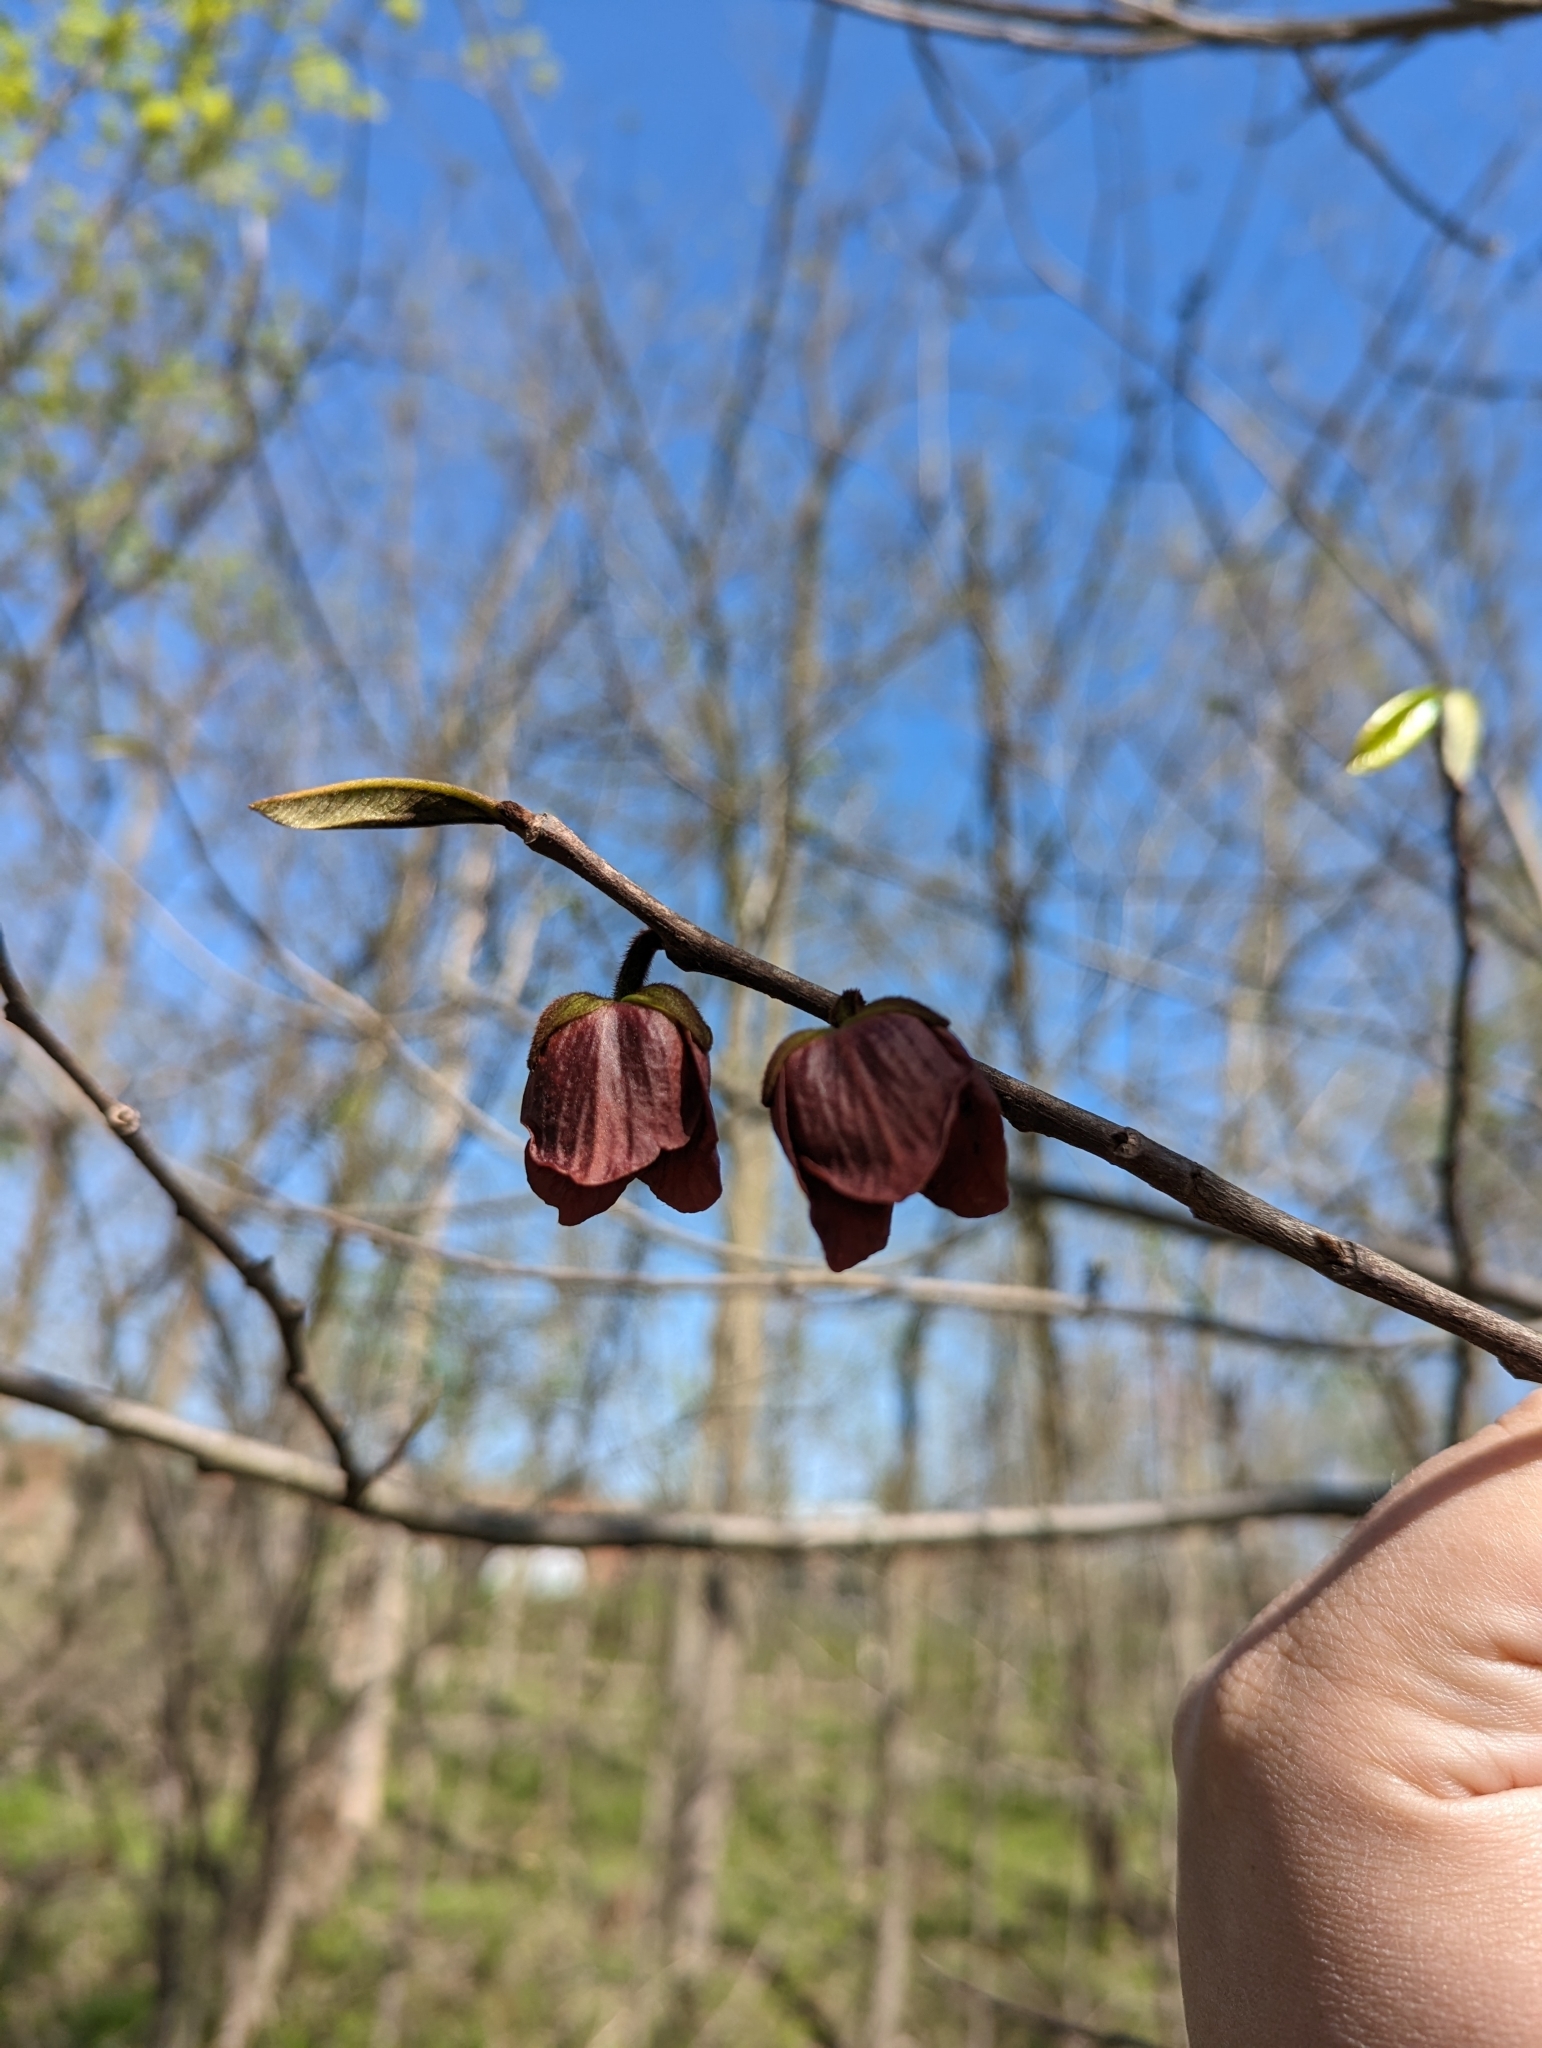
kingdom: Plantae
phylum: Tracheophyta
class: Magnoliopsida
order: Magnoliales
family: Annonaceae
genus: Asimina
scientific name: Asimina triloba
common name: Dog-banana
